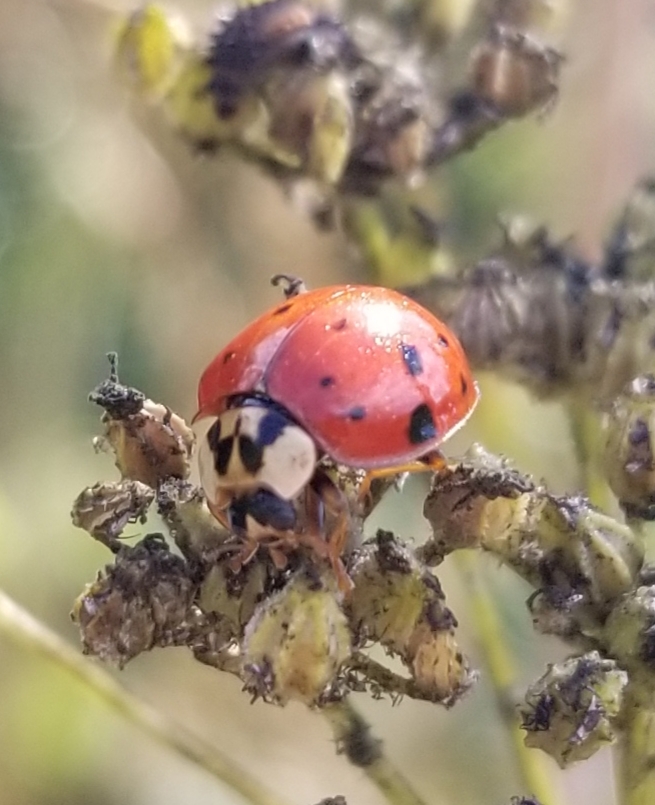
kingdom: Animalia
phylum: Arthropoda
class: Insecta
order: Coleoptera
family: Coccinellidae
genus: Harmonia
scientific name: Harmonia axyridis
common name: Harlequin ladybird
